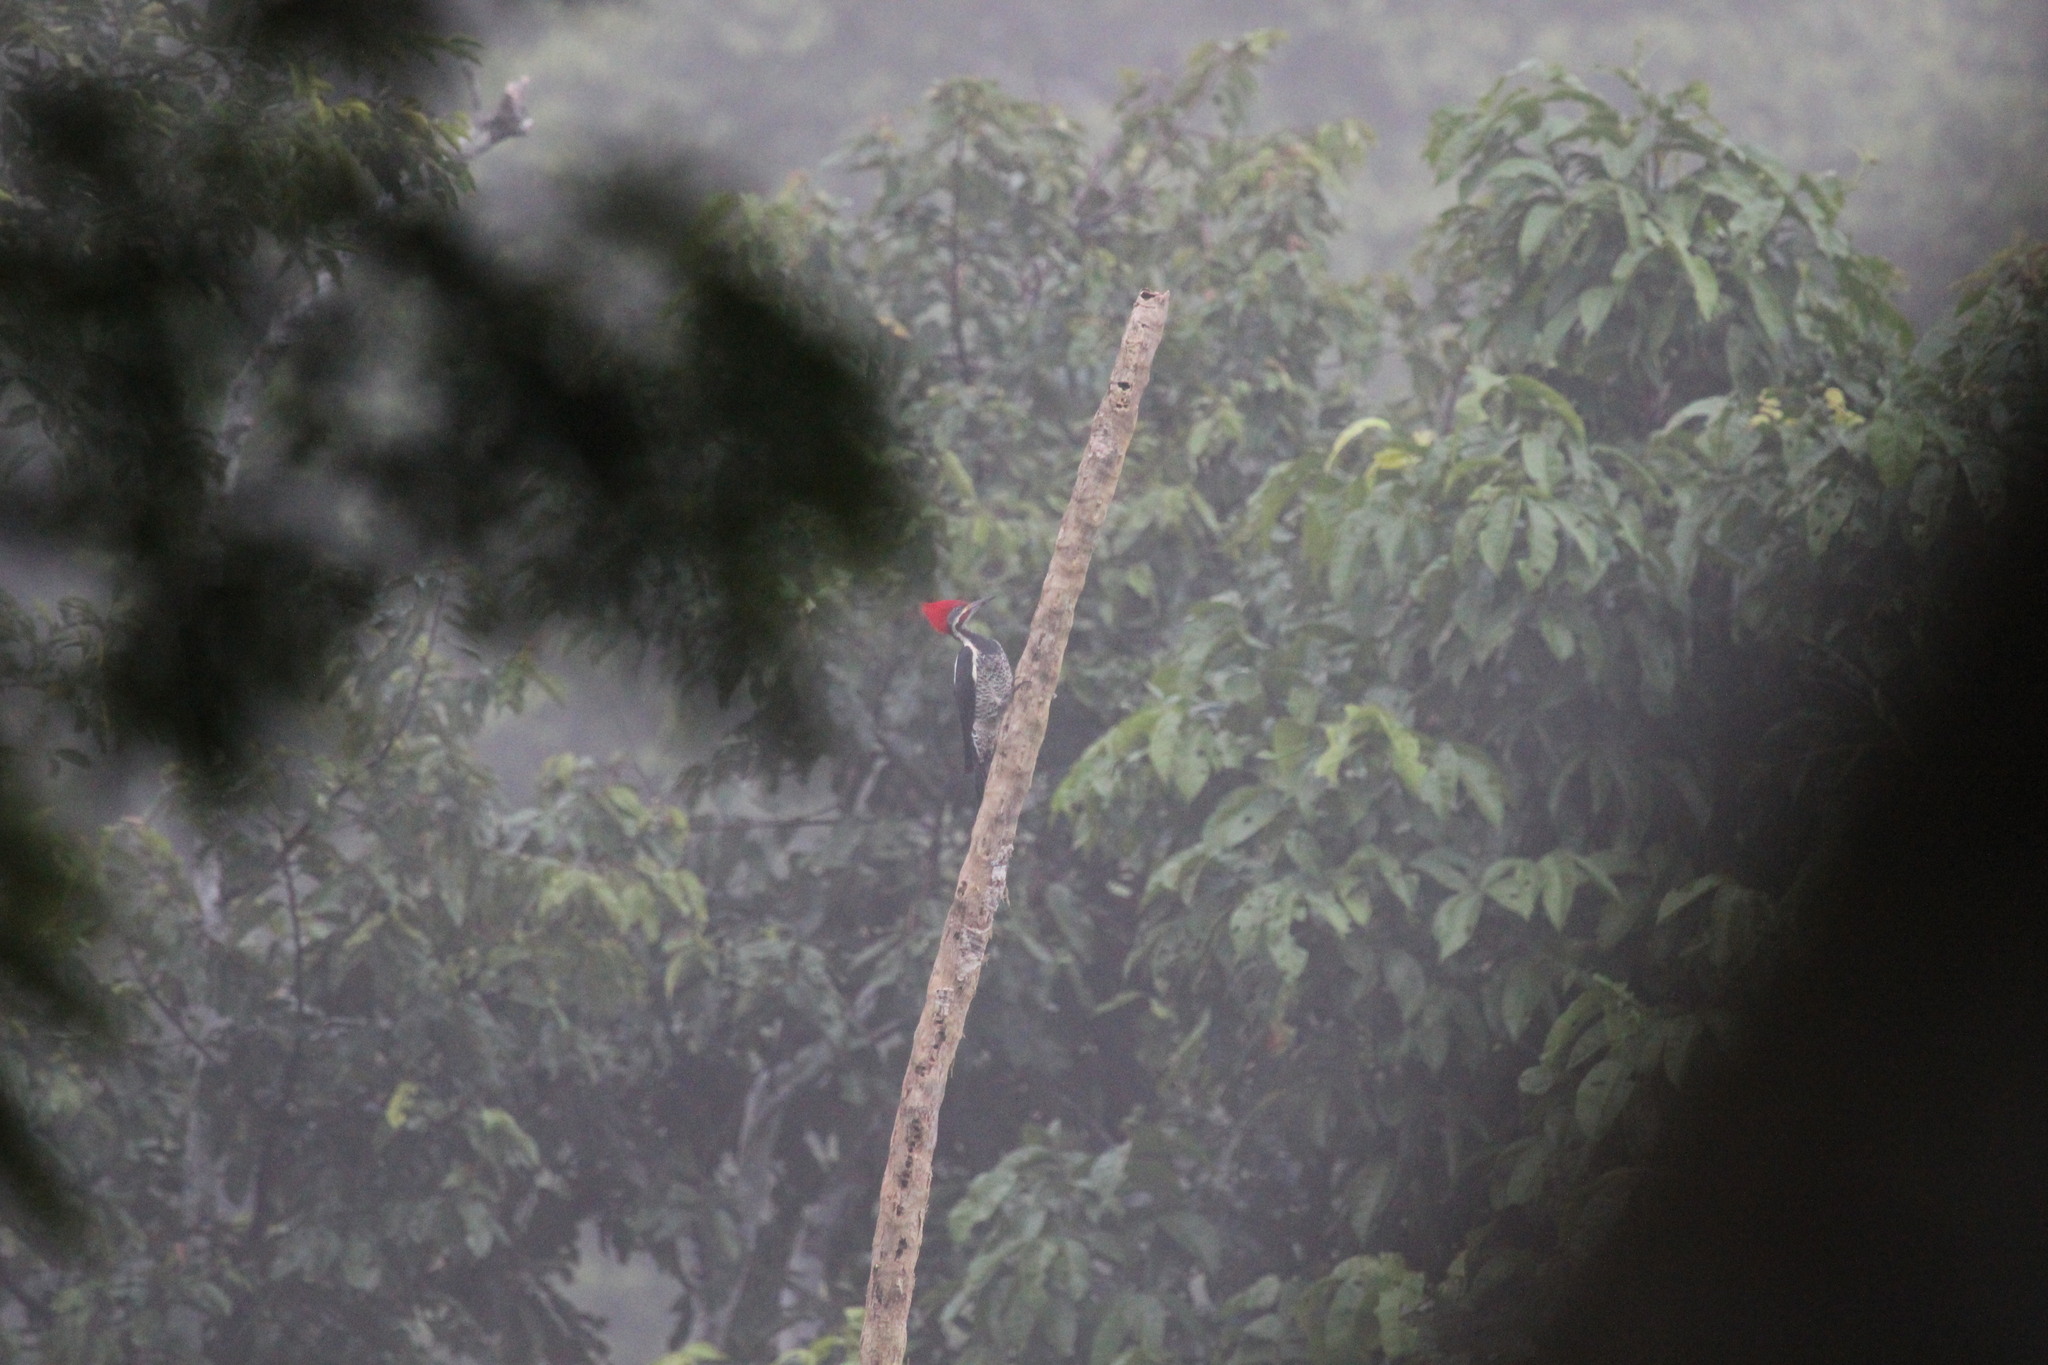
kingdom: Animalia
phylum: Chordata
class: Aves
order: Piciformes
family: Picidae
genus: Dryocopus
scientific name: Dryocopus lineatus
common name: Lineated woodpecker
